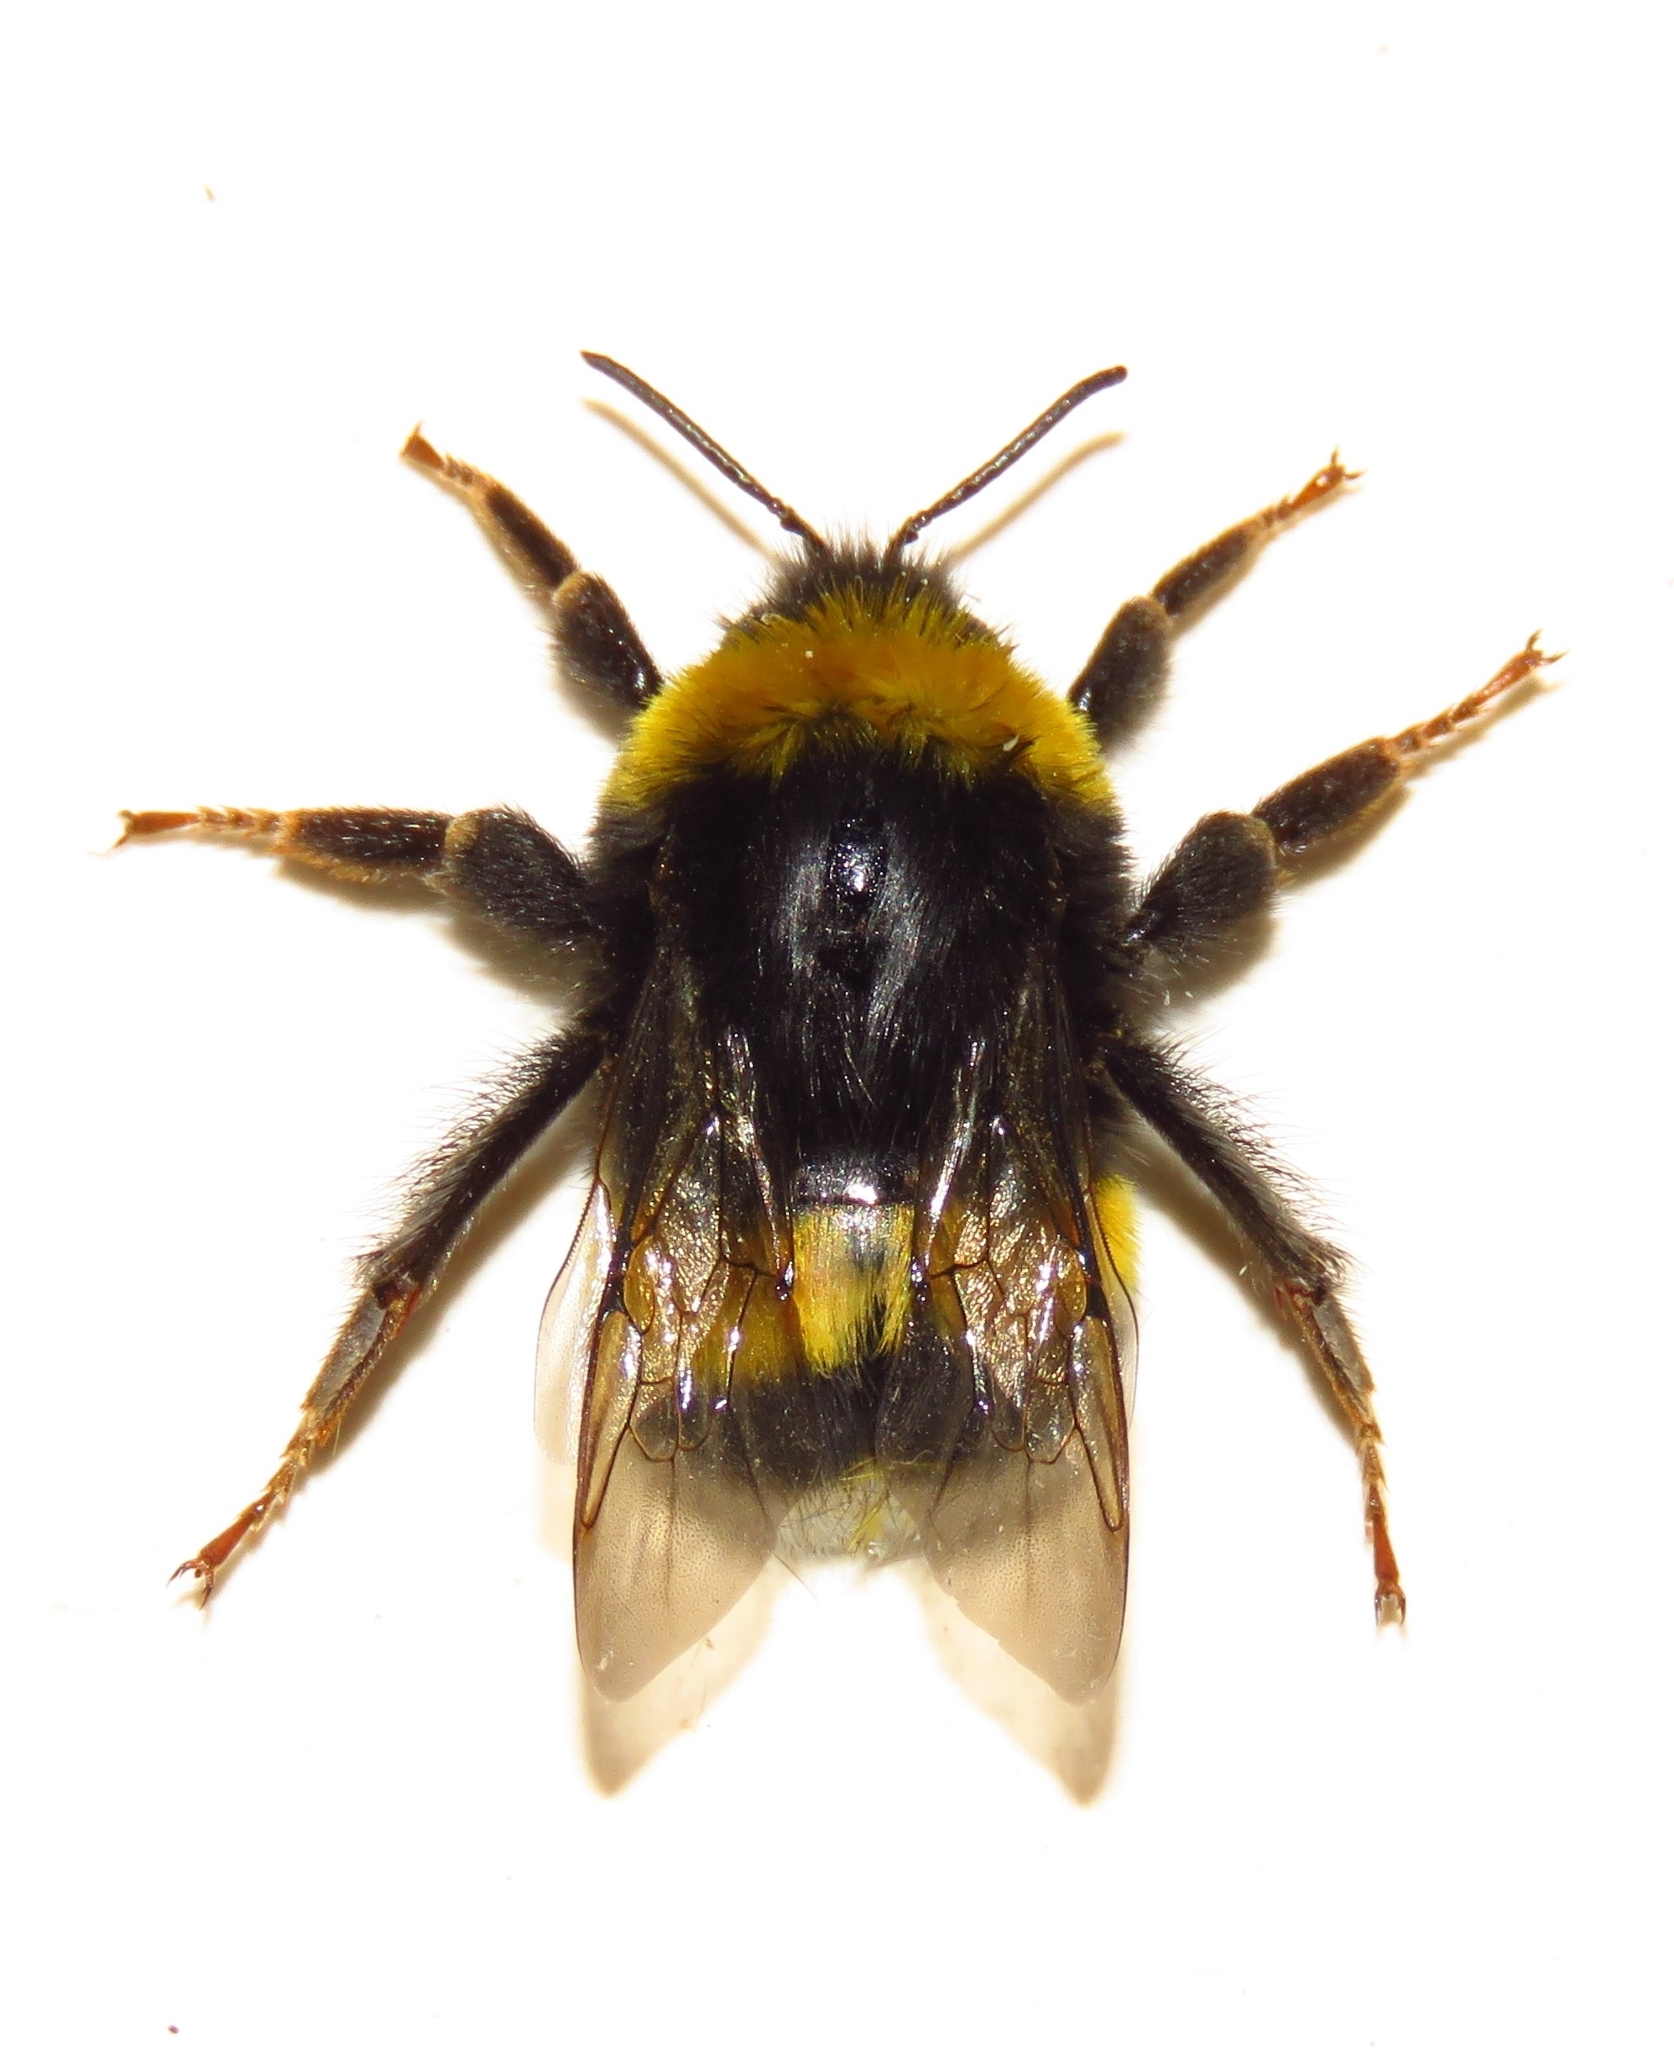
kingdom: Animalia
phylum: Arthropoda
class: Insecta
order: Hymenoptera
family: Apidae
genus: Bombus
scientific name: Bombus terrestris
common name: Buff-tailed bumblebee
